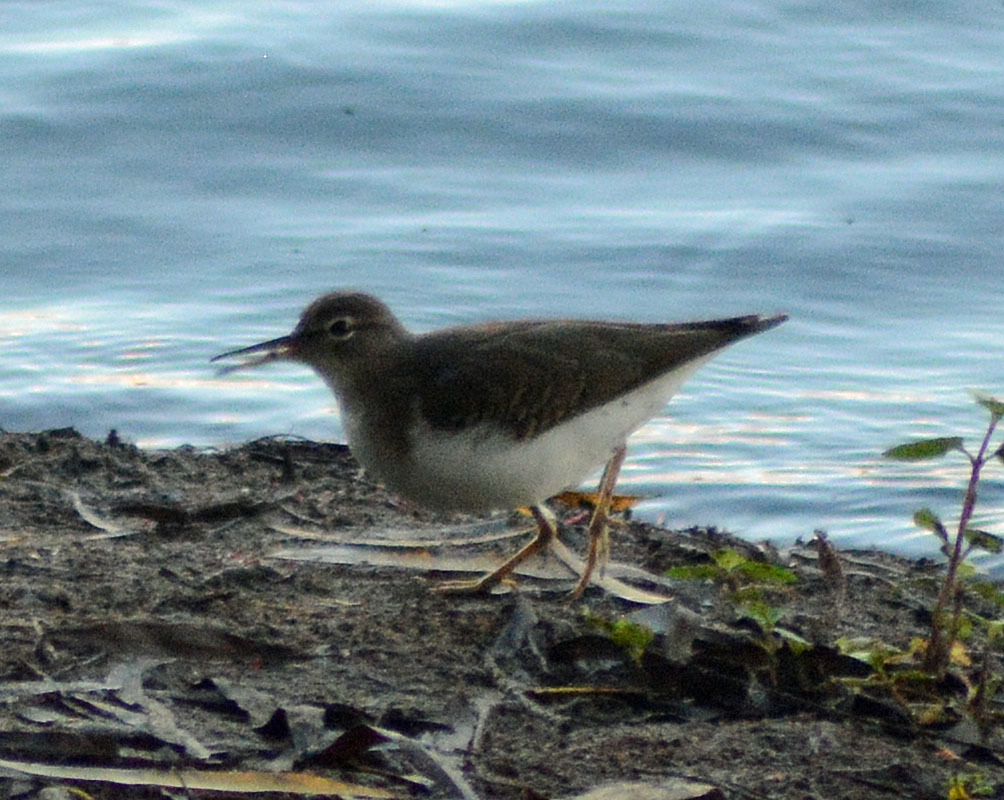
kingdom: Animalia
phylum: Chordata
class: Aves
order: Charadriiformes
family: Scolopacidae
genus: Actitis
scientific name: Actitis macularius
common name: Spotted sandpiper
